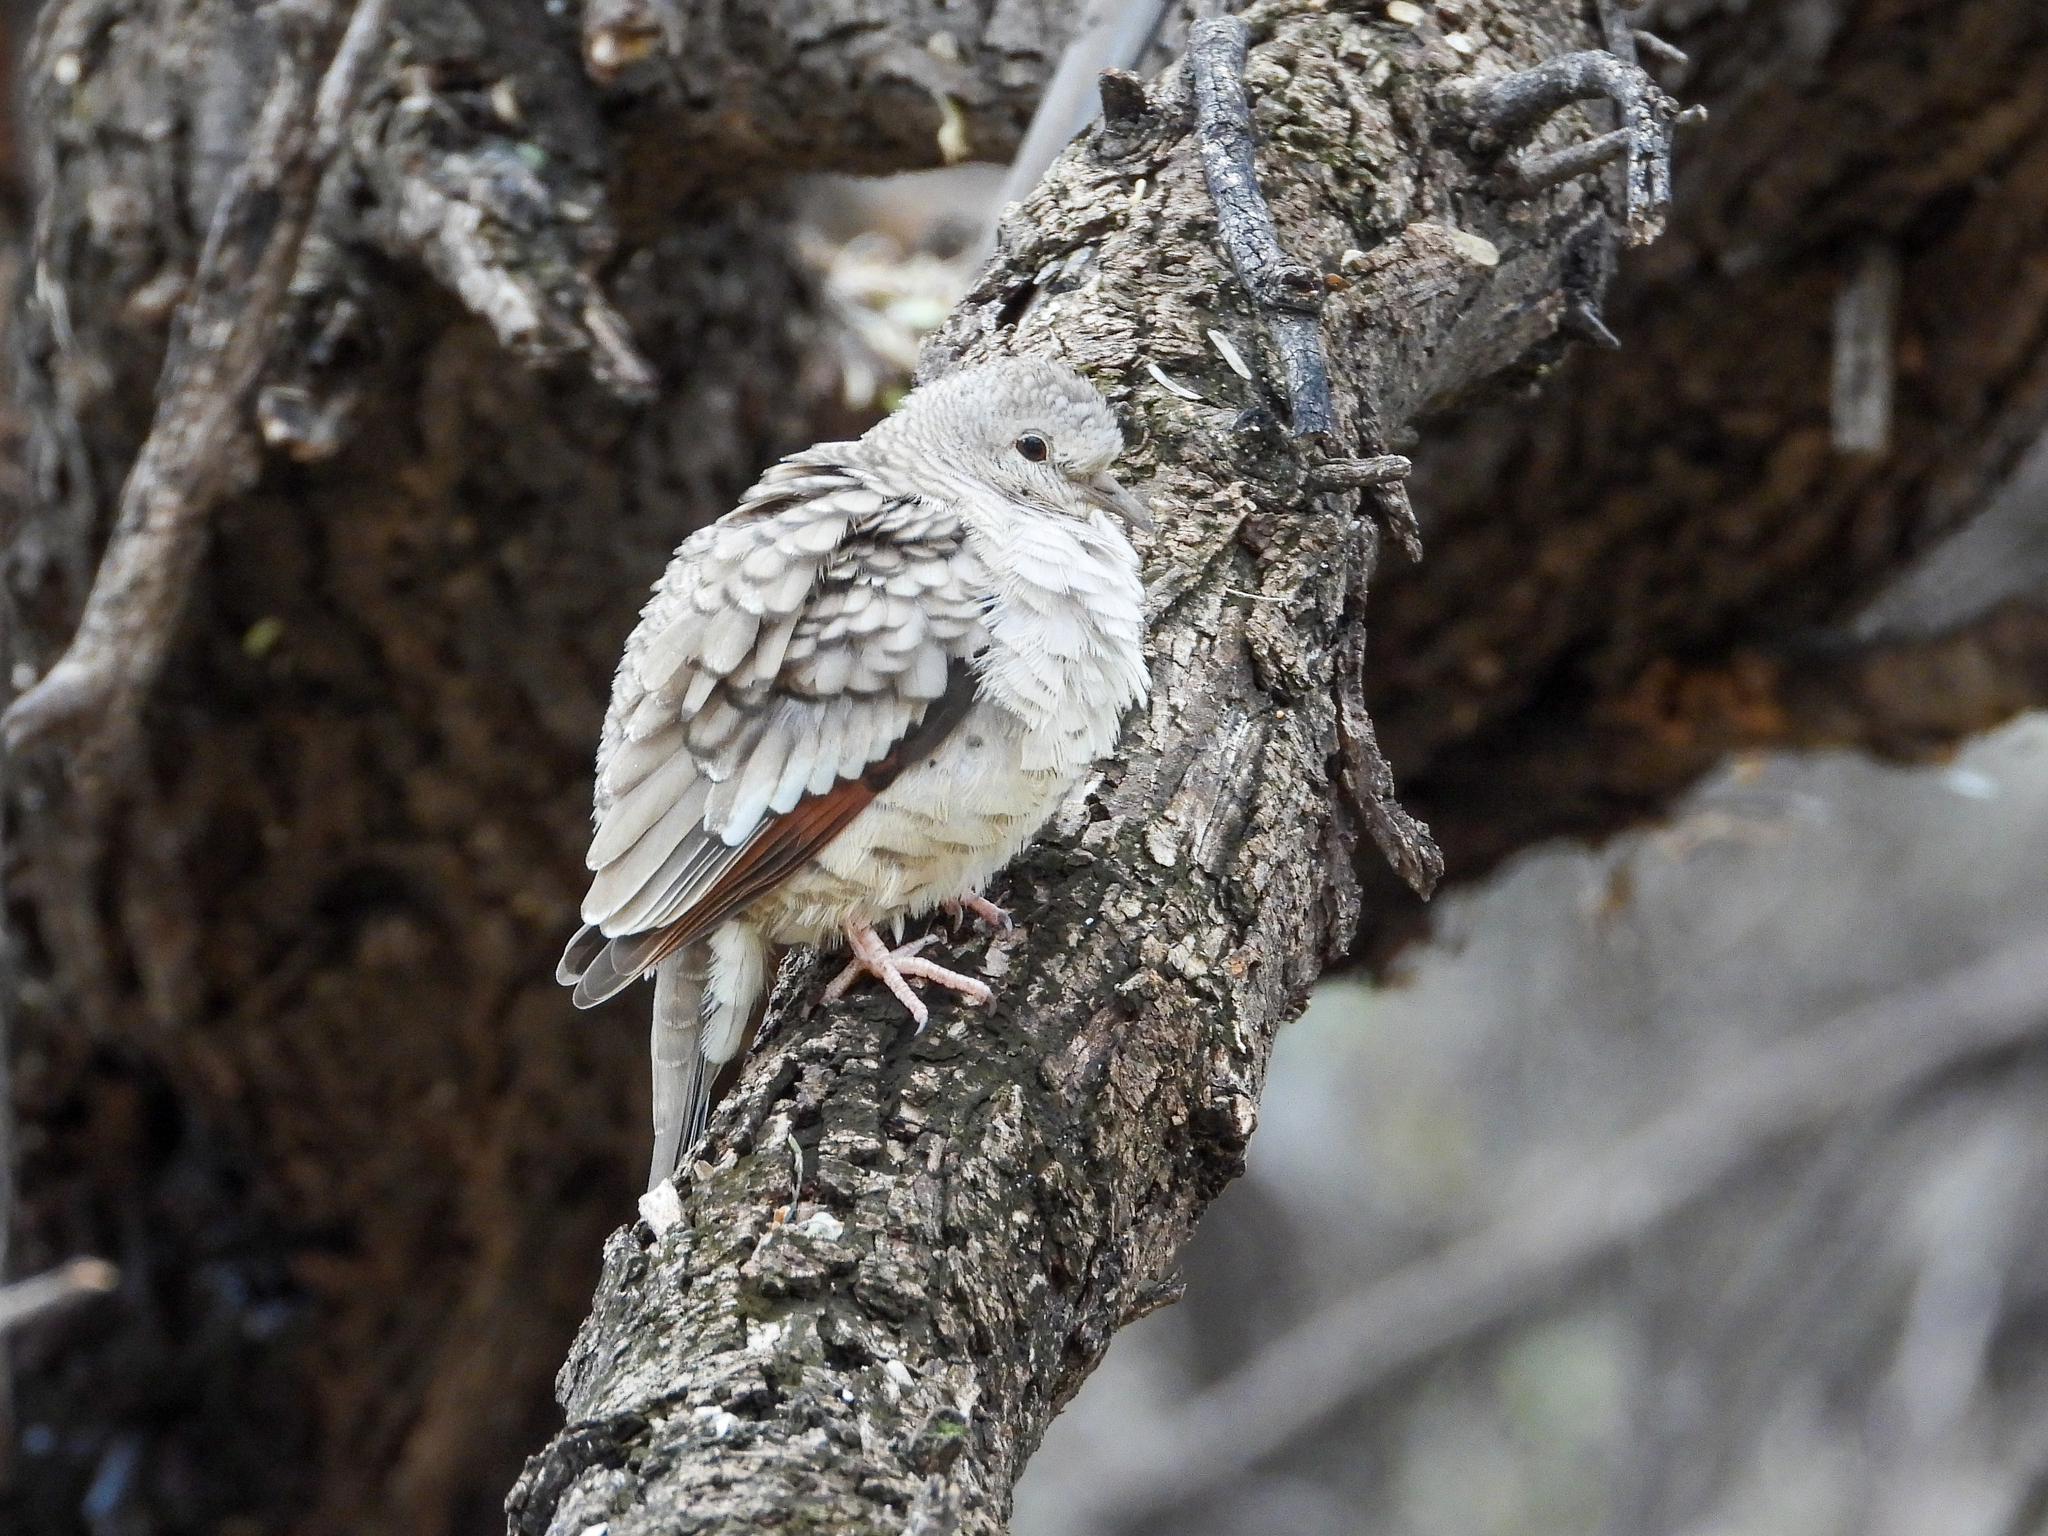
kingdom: Animalia
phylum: Chordata
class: Aves
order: Columbiformes
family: Columbidae
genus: Columbina
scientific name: Columbina inca
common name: Inca dove
